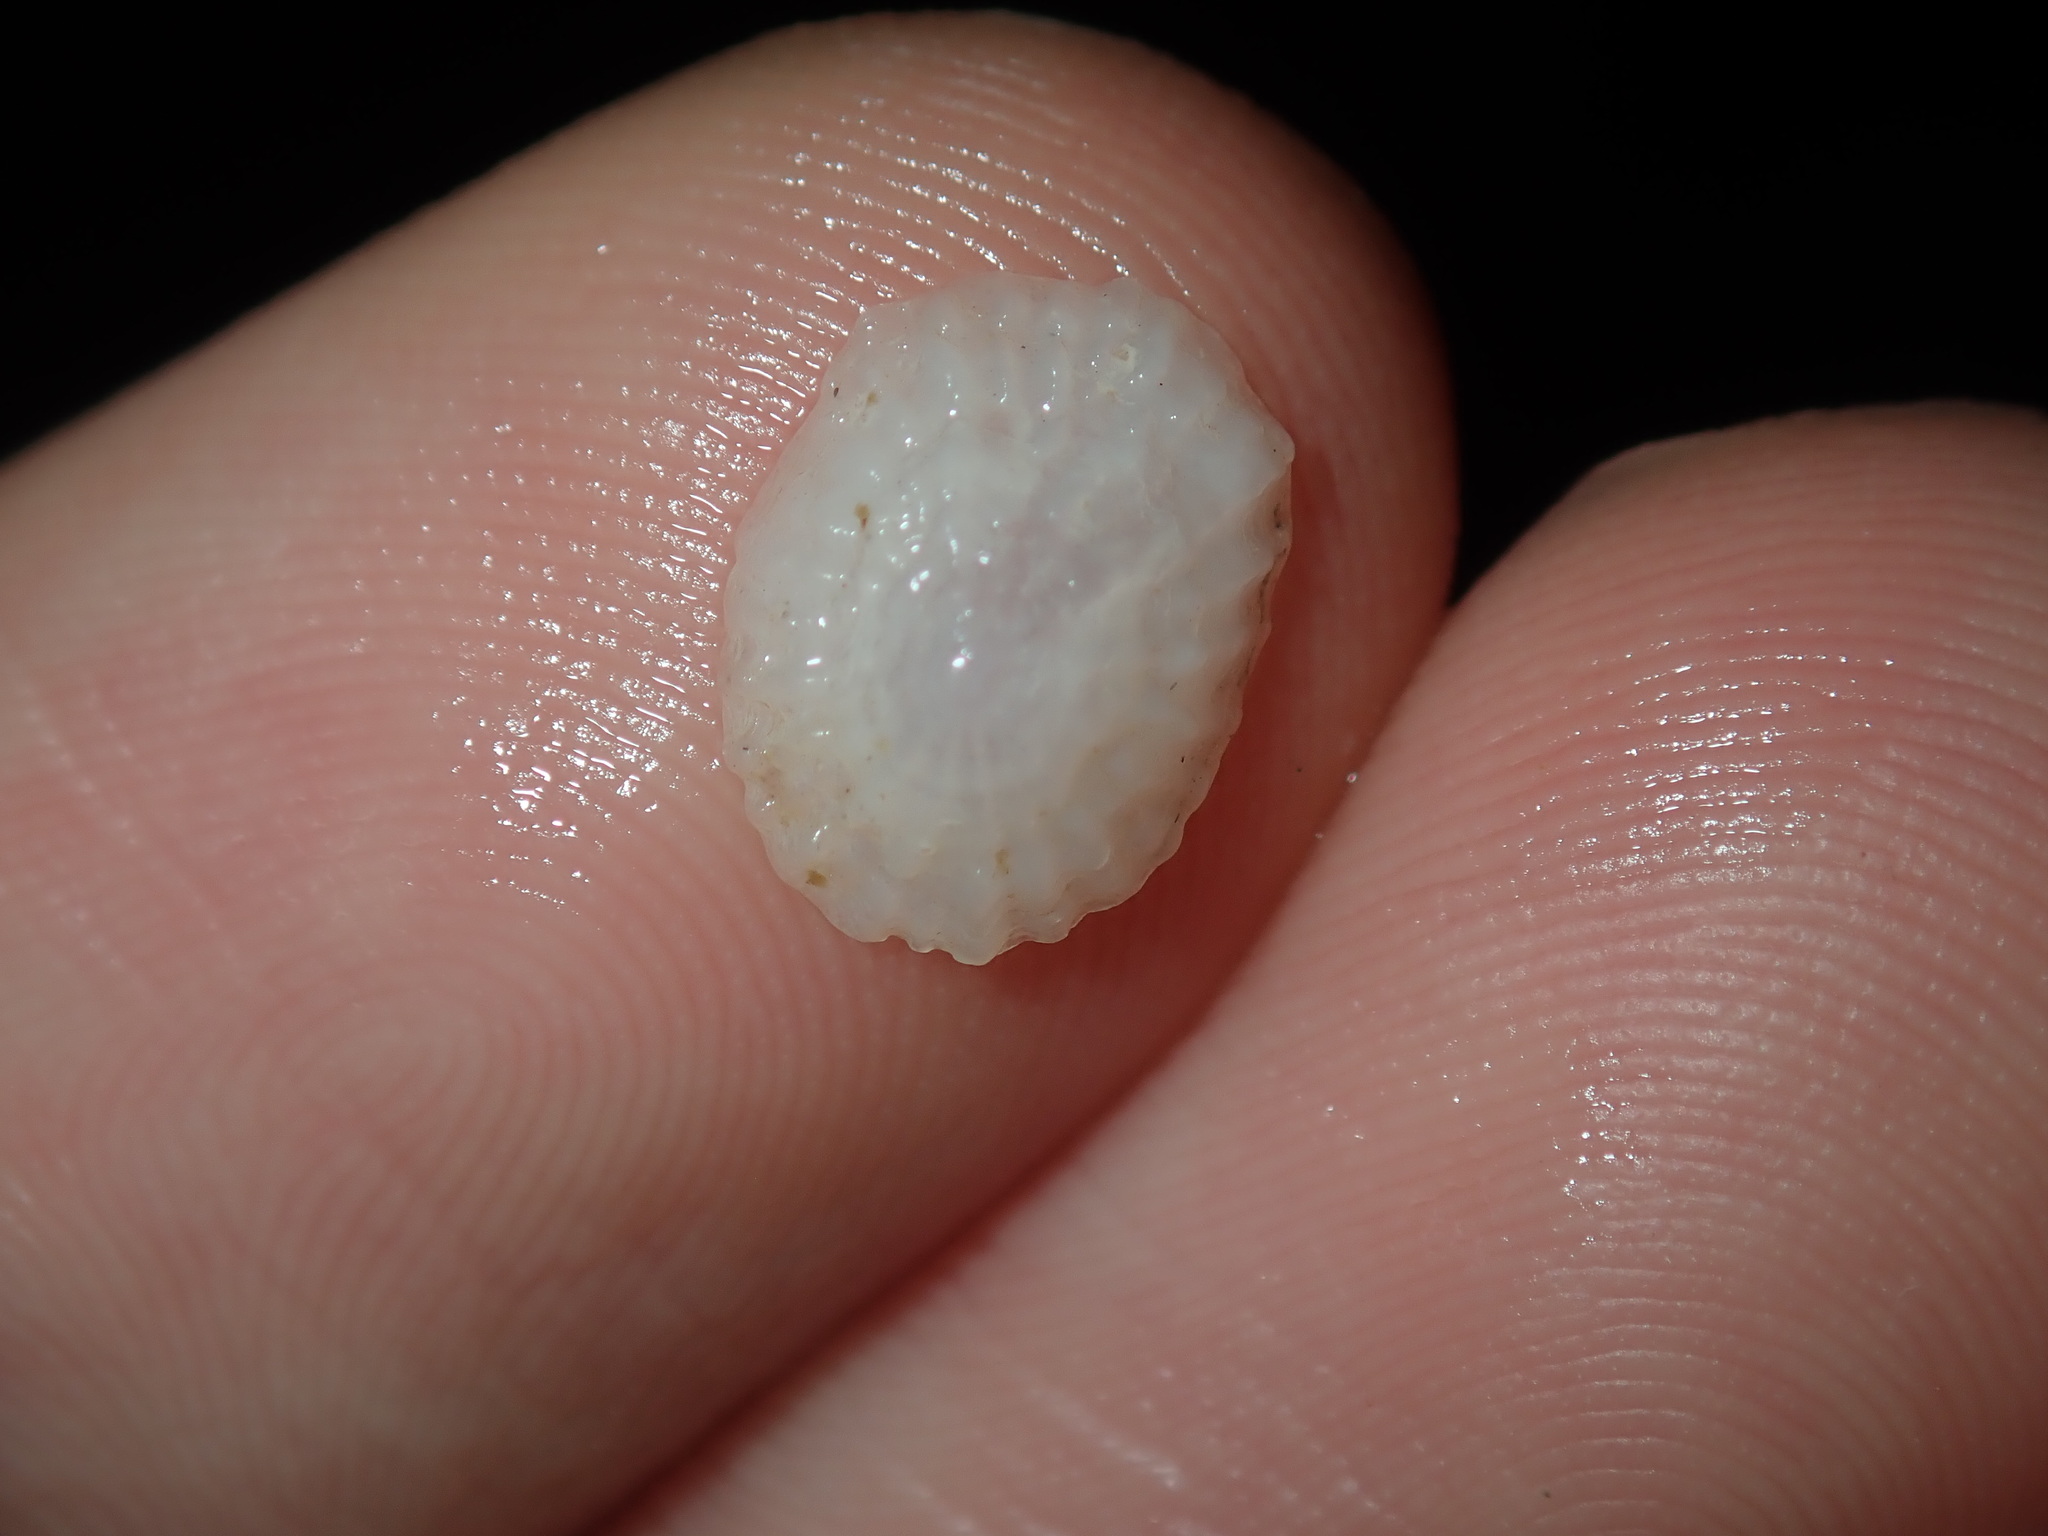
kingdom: Animalia
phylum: Mollusca
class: Gastropoda
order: Ellobiida
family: Trimusculidae
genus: Trimusculus
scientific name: Trimusculus conicus
